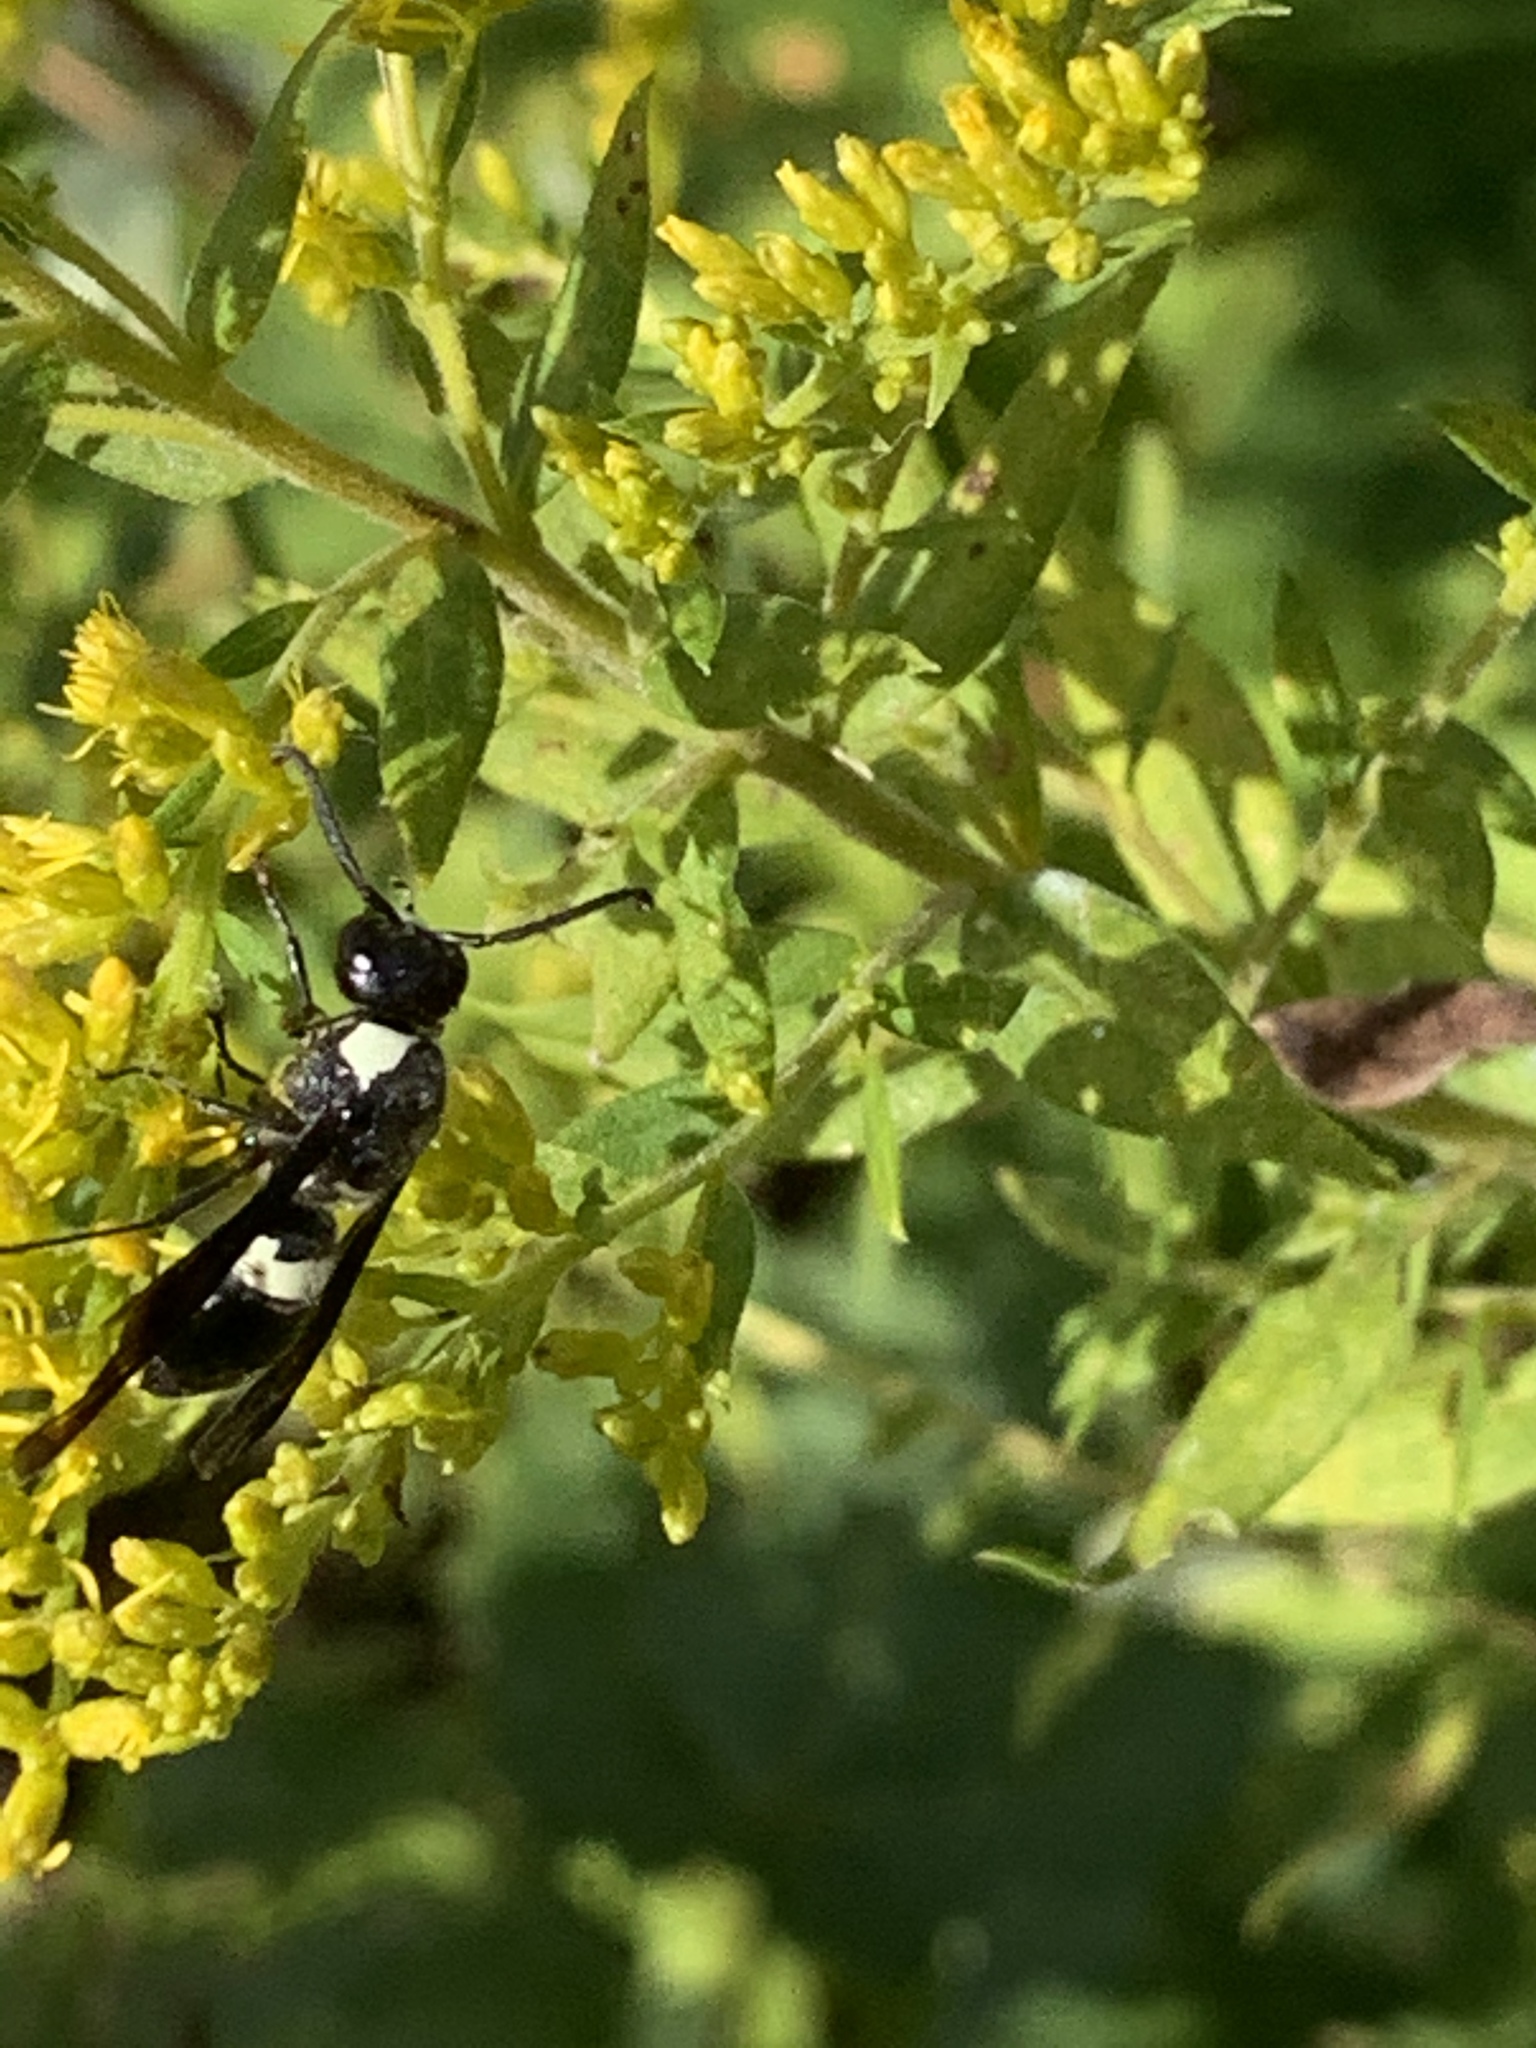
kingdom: Animalia
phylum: Arthropoda
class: Insecta
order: Hymenoptera
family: Eumenidae
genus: Monobia
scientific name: Monobia quadridens
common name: Four-toothed mason wasp
